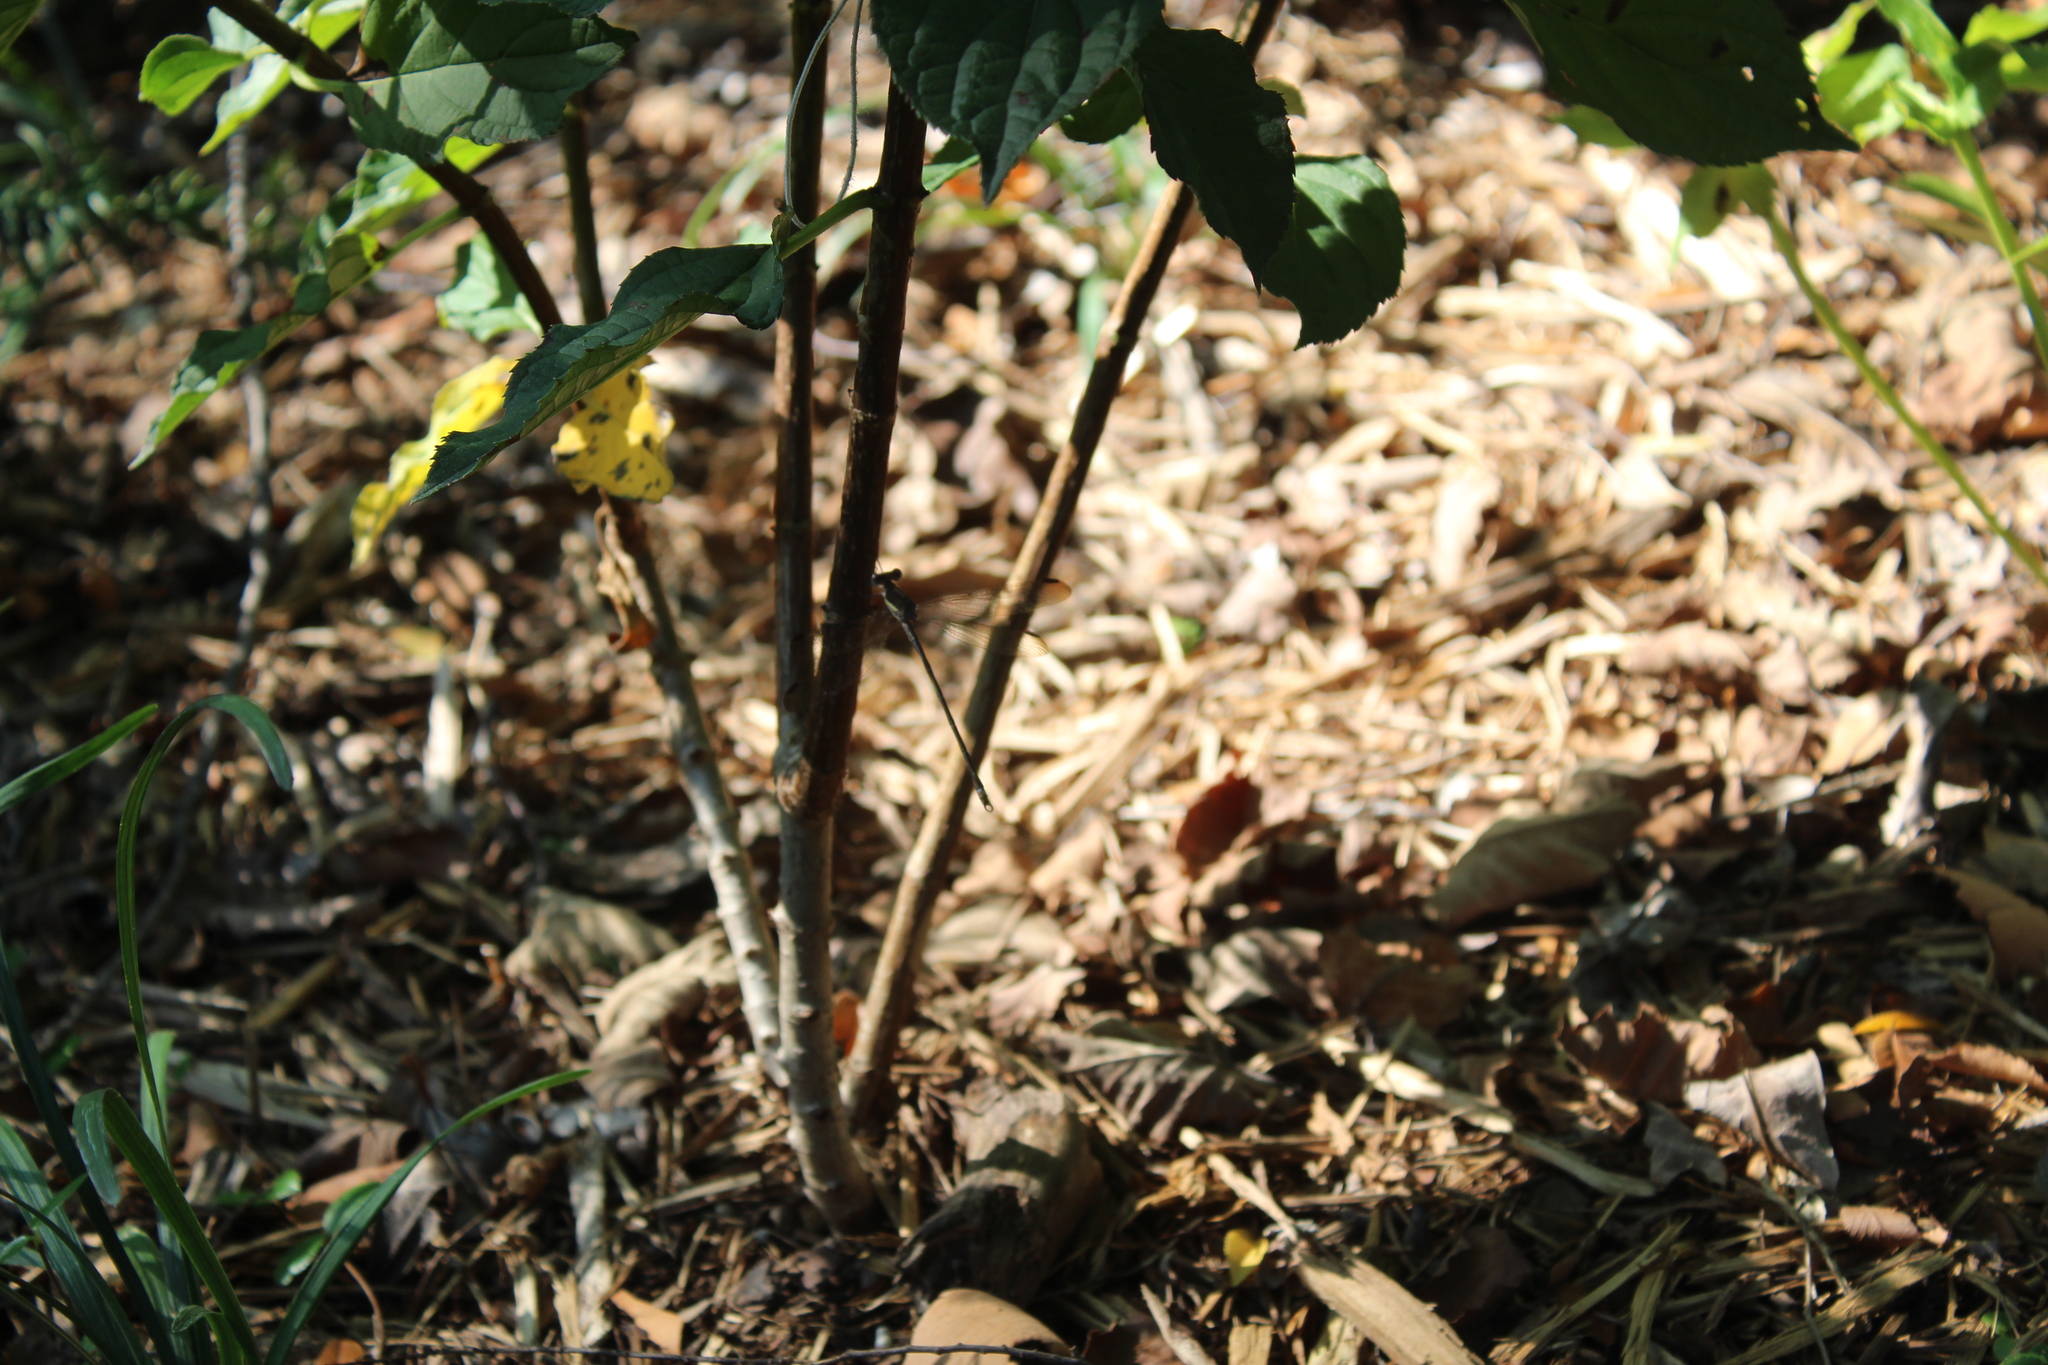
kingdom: Animalia
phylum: Arthropoda
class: Insecta
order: Odonata
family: Lestidae
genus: Archilestes
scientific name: Archilestes grandis
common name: Great spreadwing
